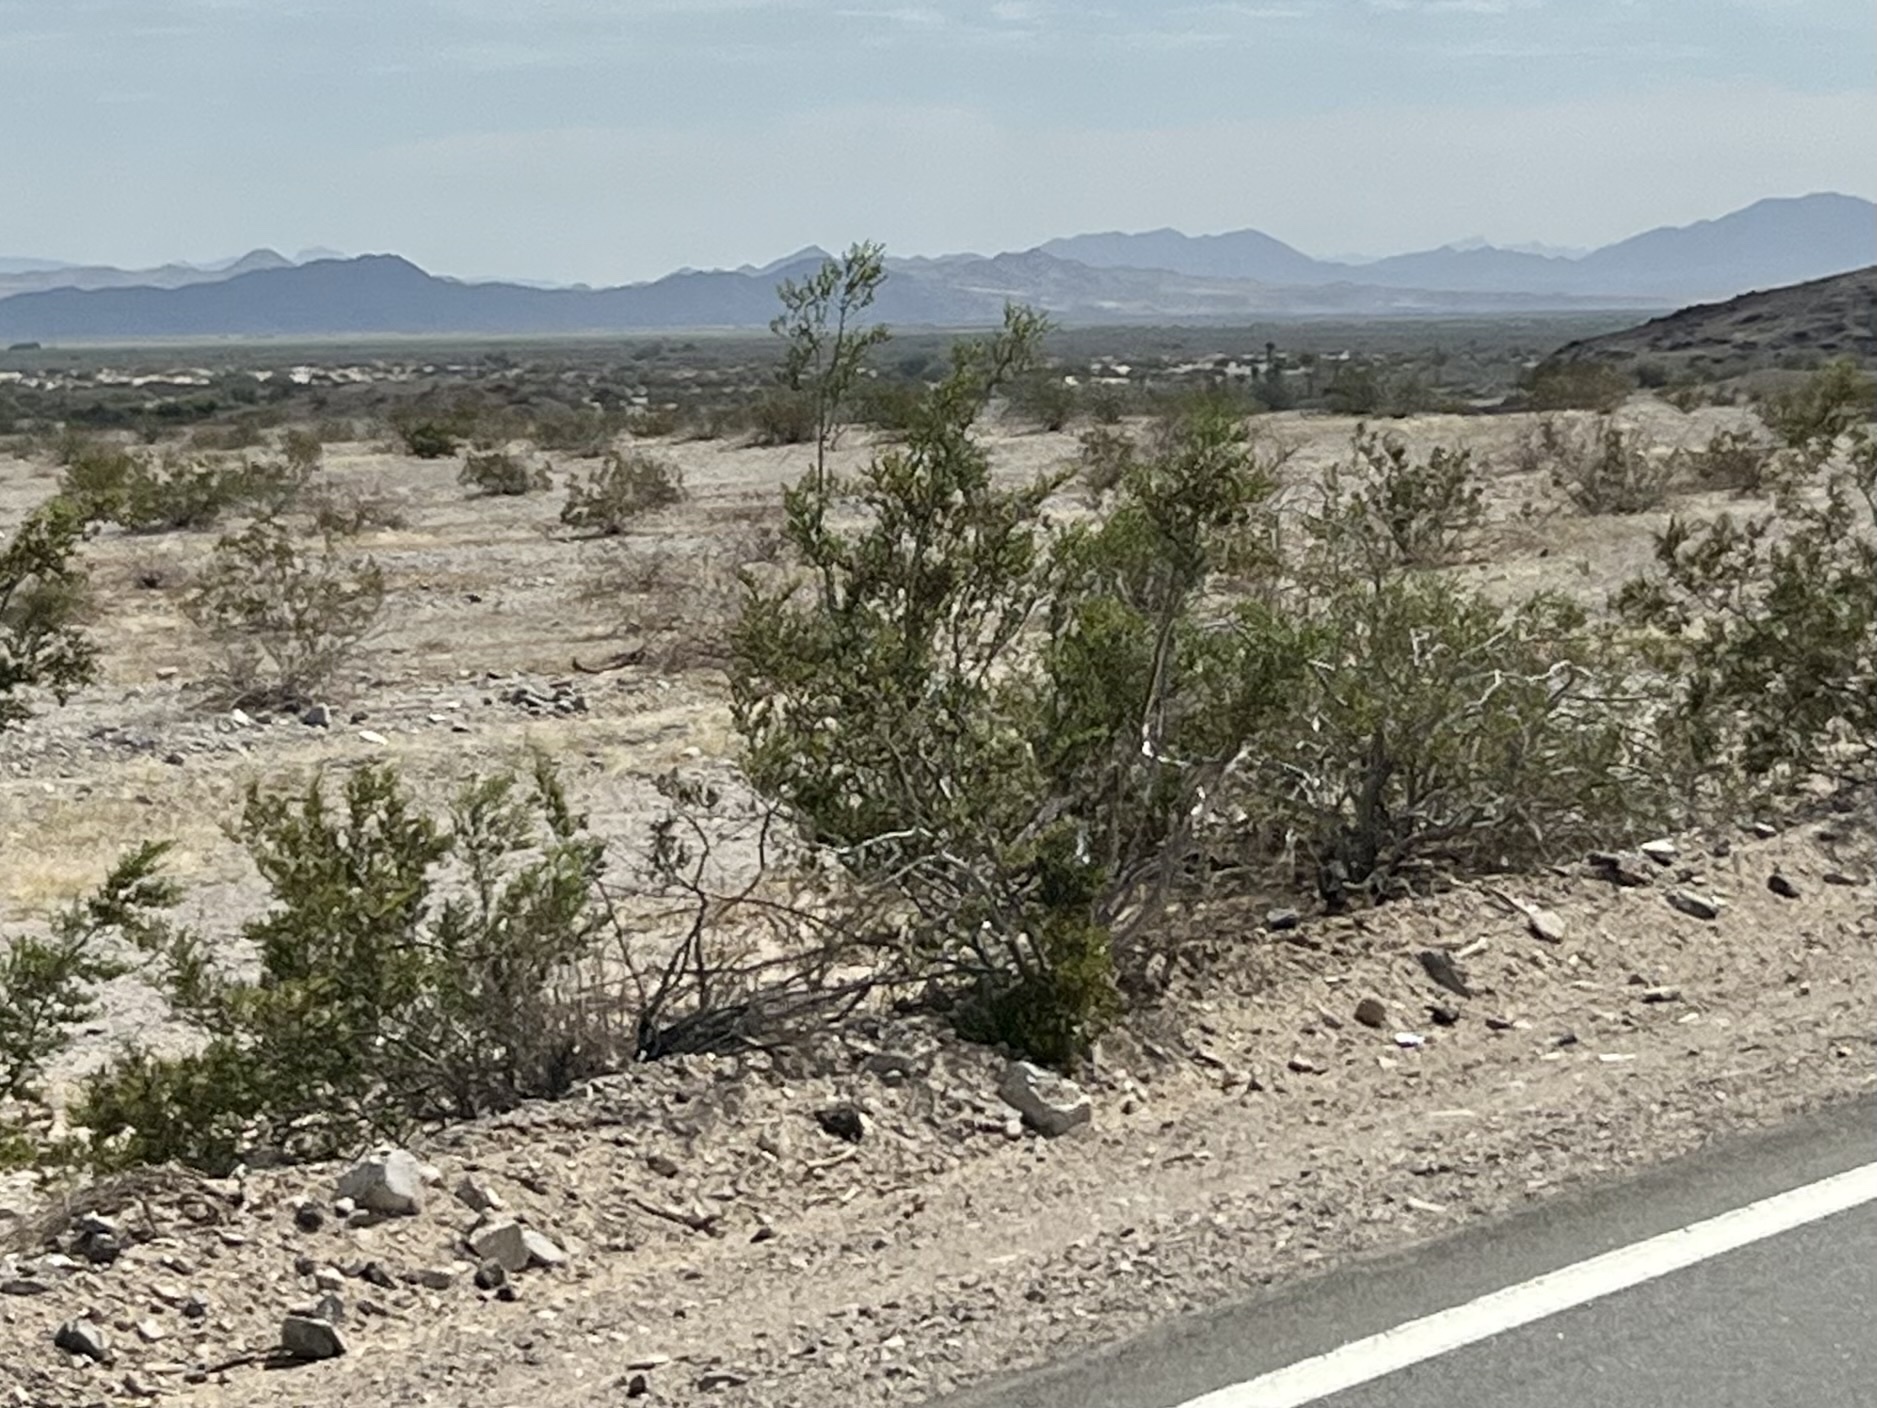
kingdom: Plantae
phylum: Tracheophyta
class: Magnoliopsida
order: Zygophyllales
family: Zygophyllaceae
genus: Larrea
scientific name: Larrea tridentata
